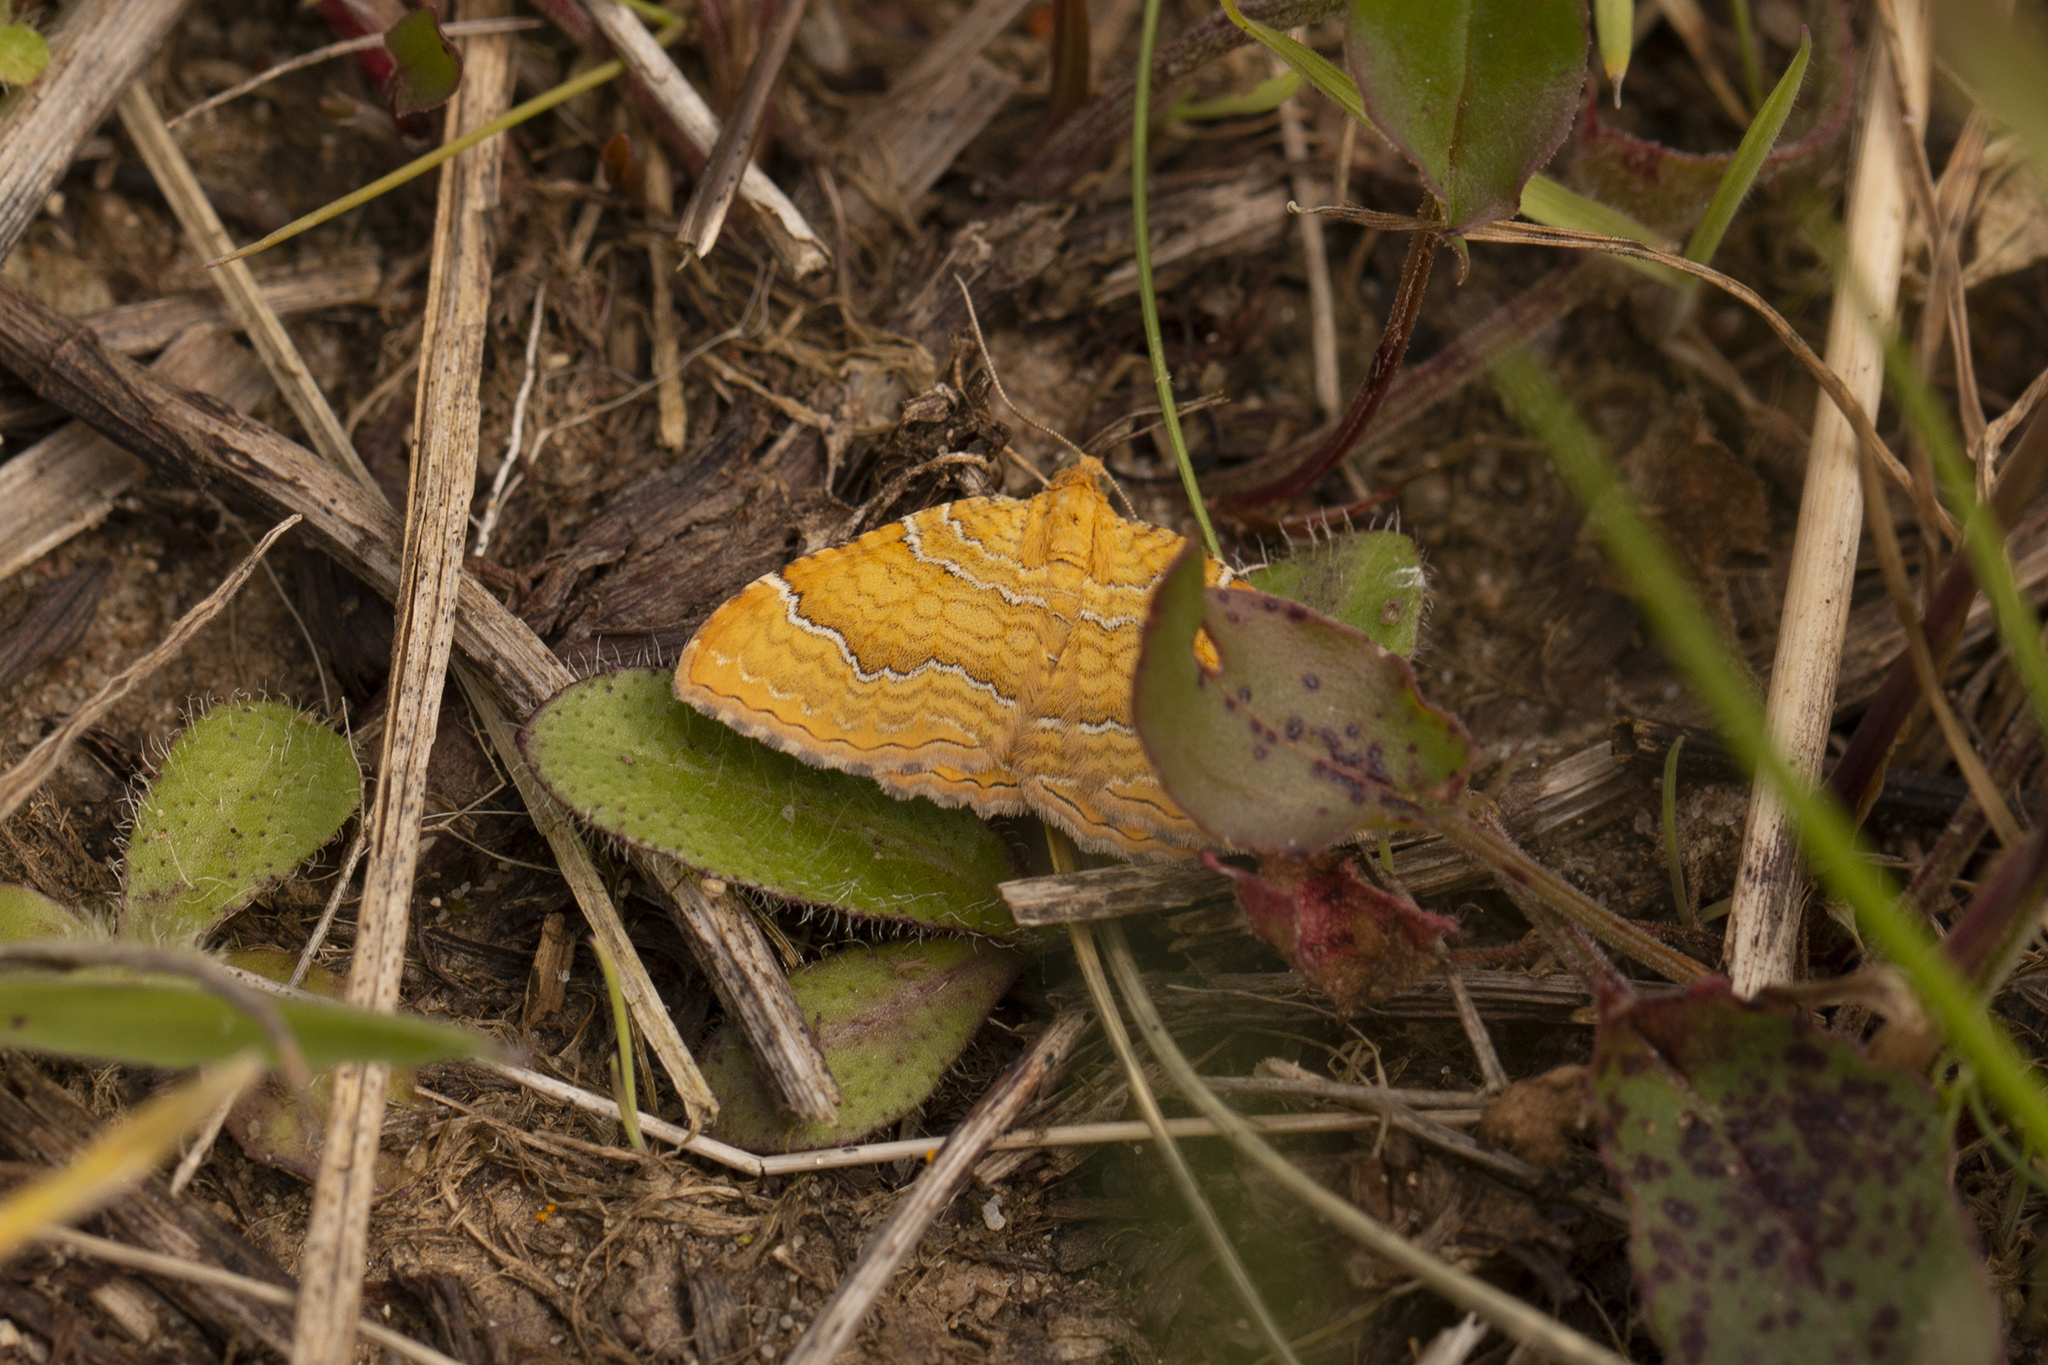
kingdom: Animalia
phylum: Arthropoda
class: Insecta
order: Lepidoptera
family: Geometridae
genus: Camptogramma
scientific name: Camptogramma bilineata
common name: Yellow shell
